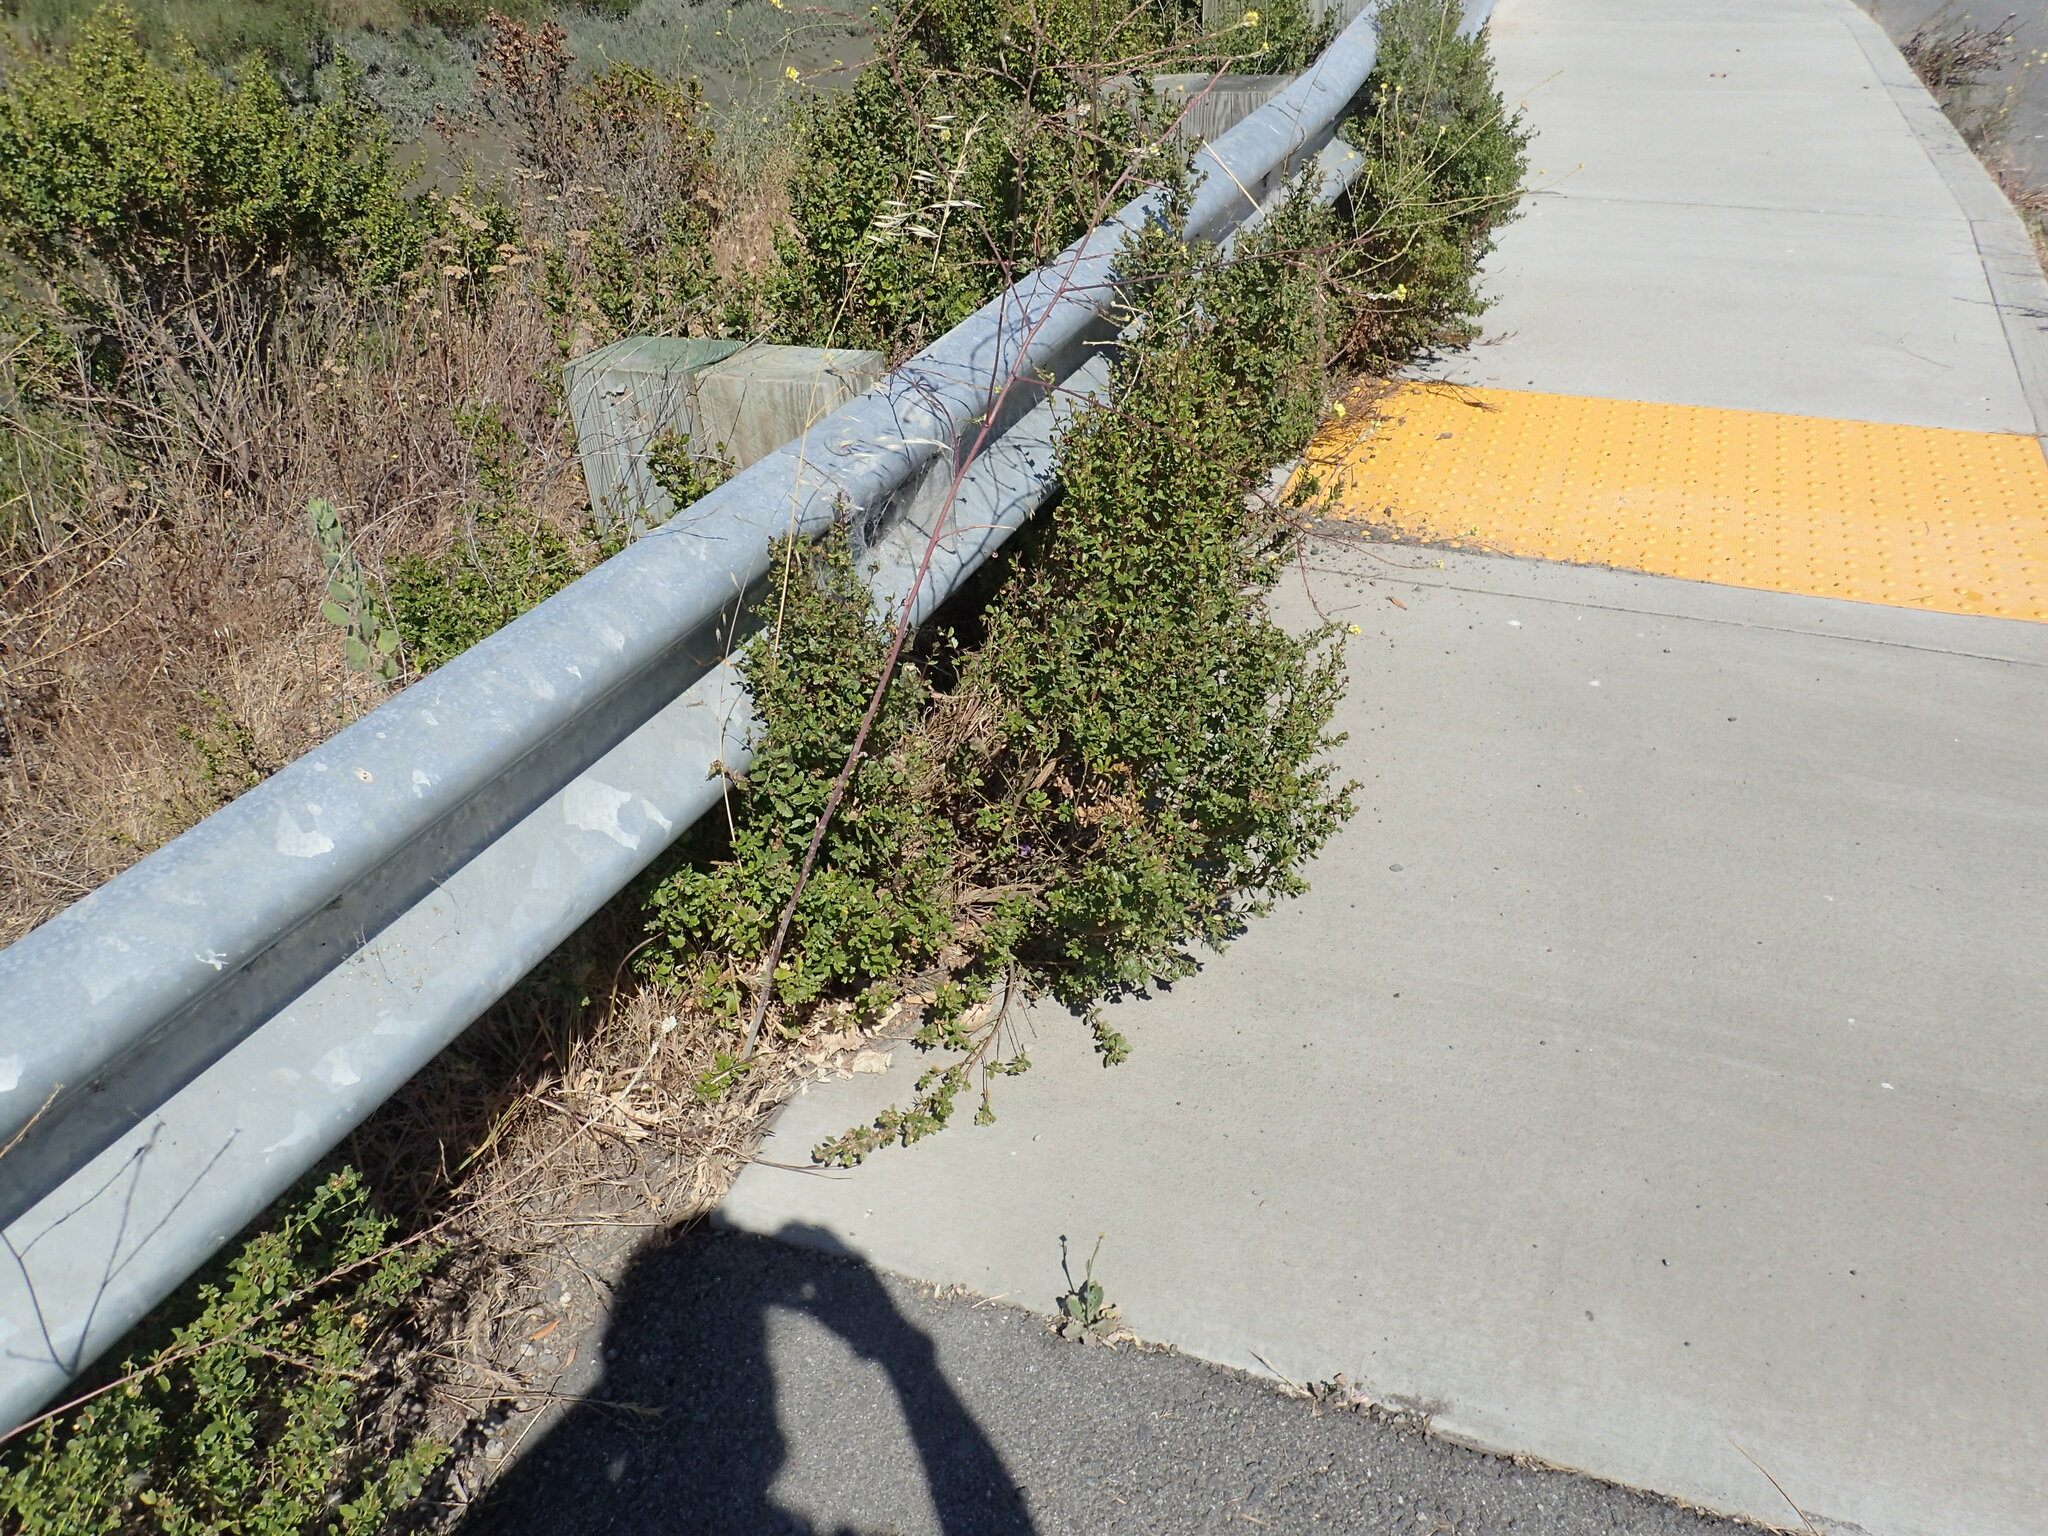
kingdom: Plantae
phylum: Tracheophyta
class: Liliopsida
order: Asparagales
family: Iridaceae
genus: Sisyrinchium
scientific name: Sisyrinchium bellum
